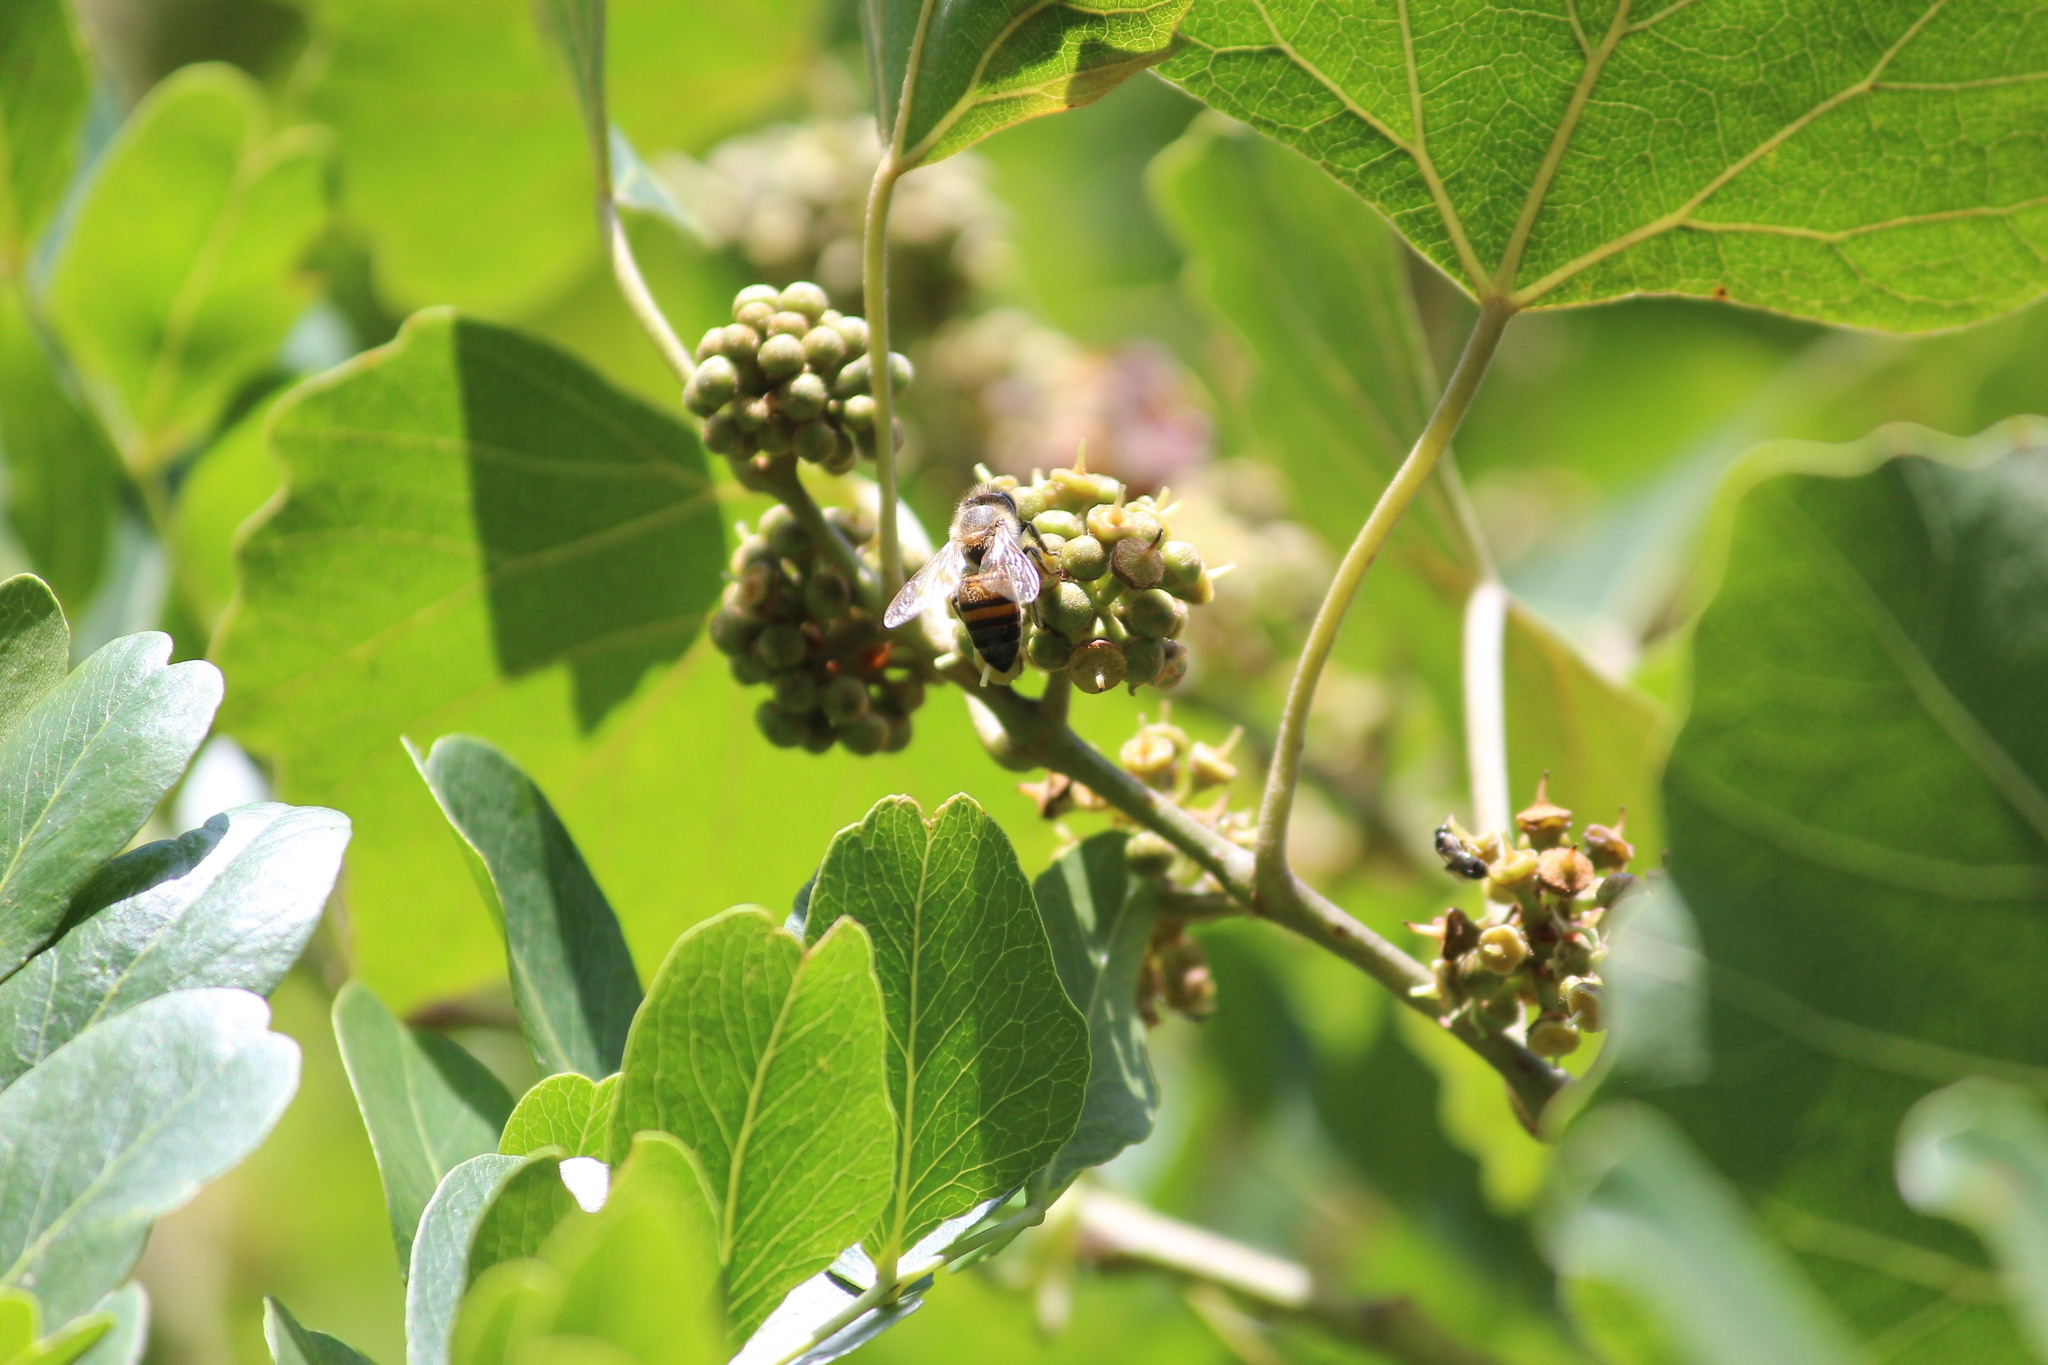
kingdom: Animalia
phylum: Arthropoda
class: Insecta
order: Hymenoptera
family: Apidae
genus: Apis
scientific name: Apis mellifera
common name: Honey bee
